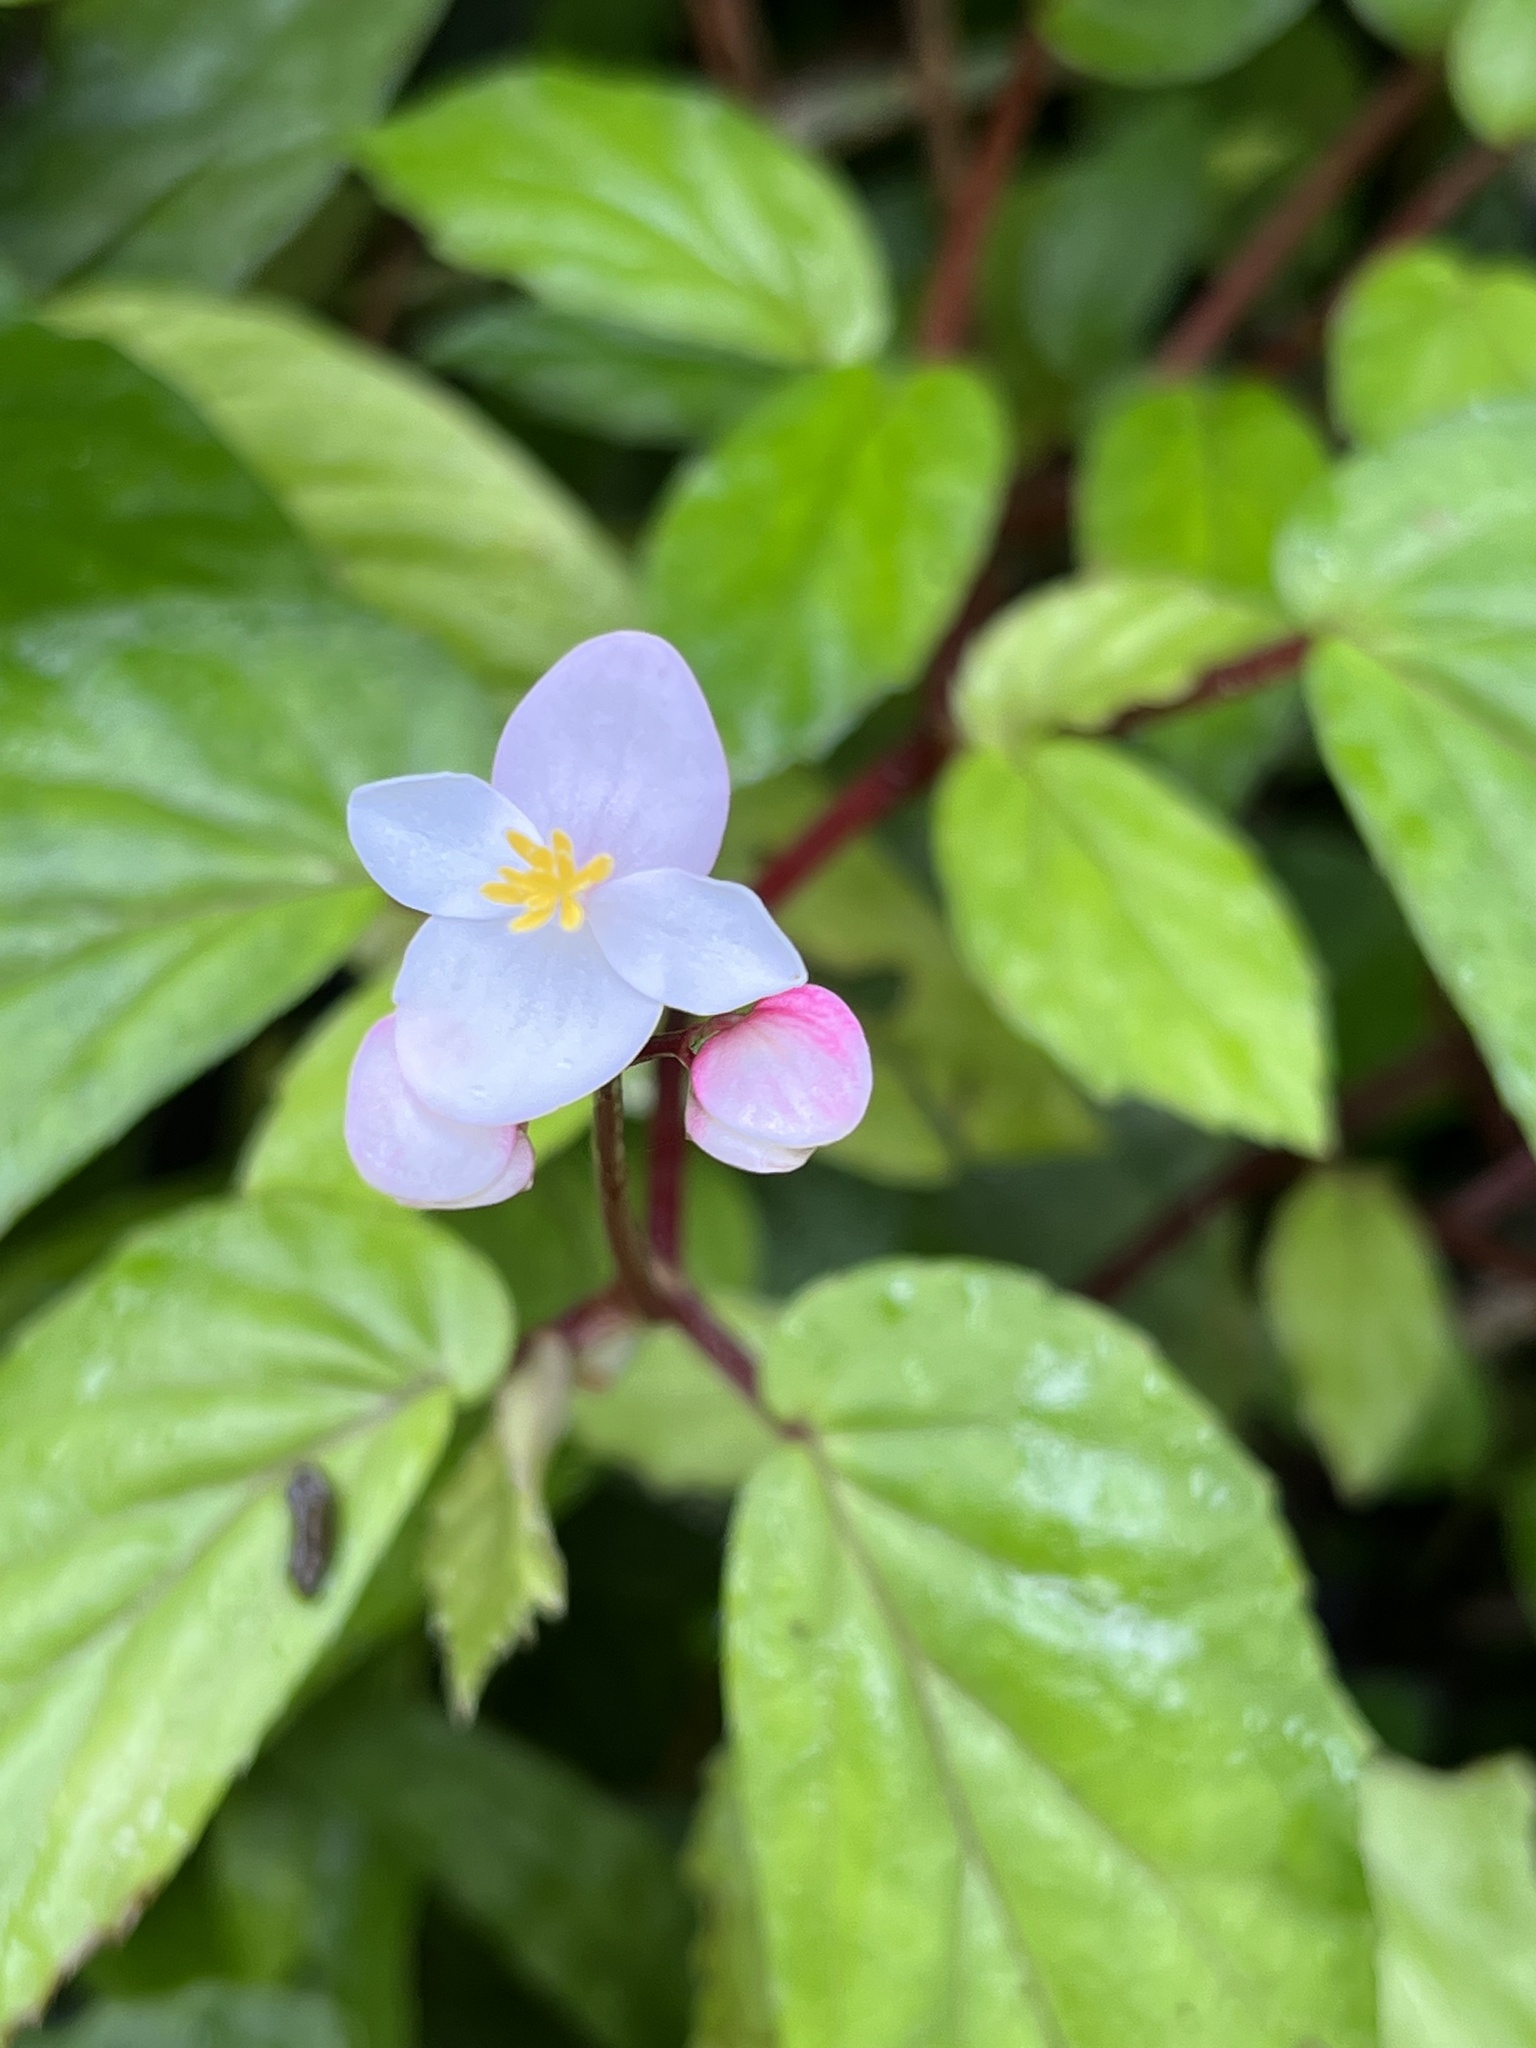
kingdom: Plantae
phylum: Tracheophyta
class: Magnoliopsida
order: Cucurbitales
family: Begoniaceae
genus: Begonia
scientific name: Begonia decandra
